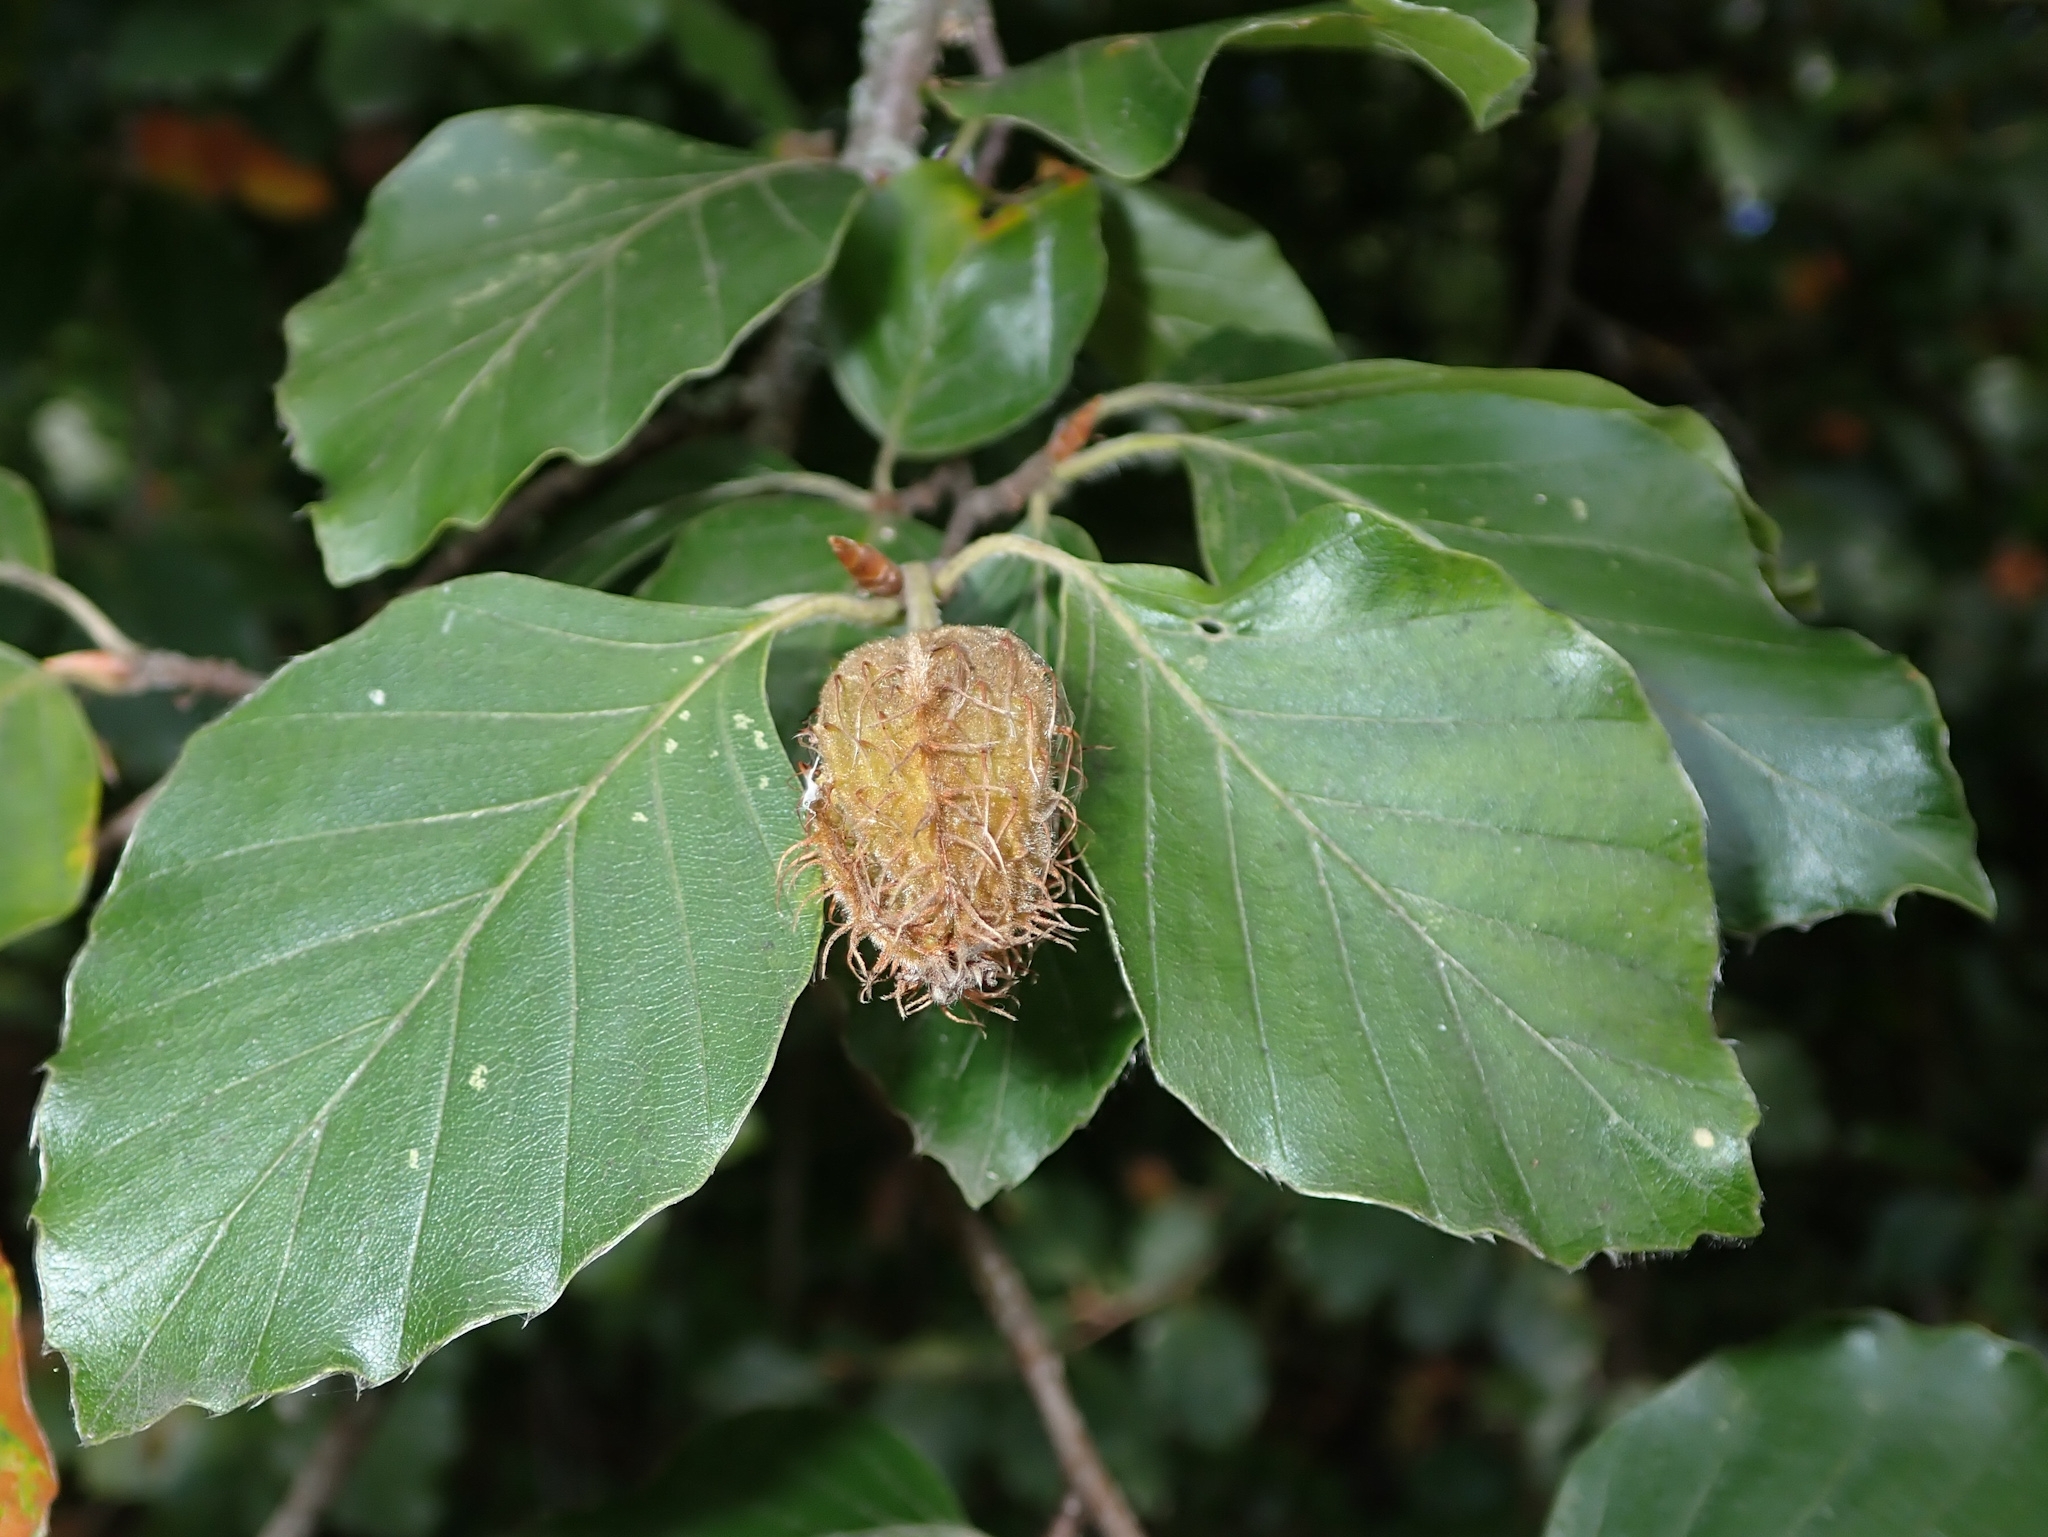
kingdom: Plantae
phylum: Tracheophyta
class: Magnoliopsida
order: Fagales
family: Fagaceae
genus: Fagus
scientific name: Fagus sylvatica
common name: Beech
